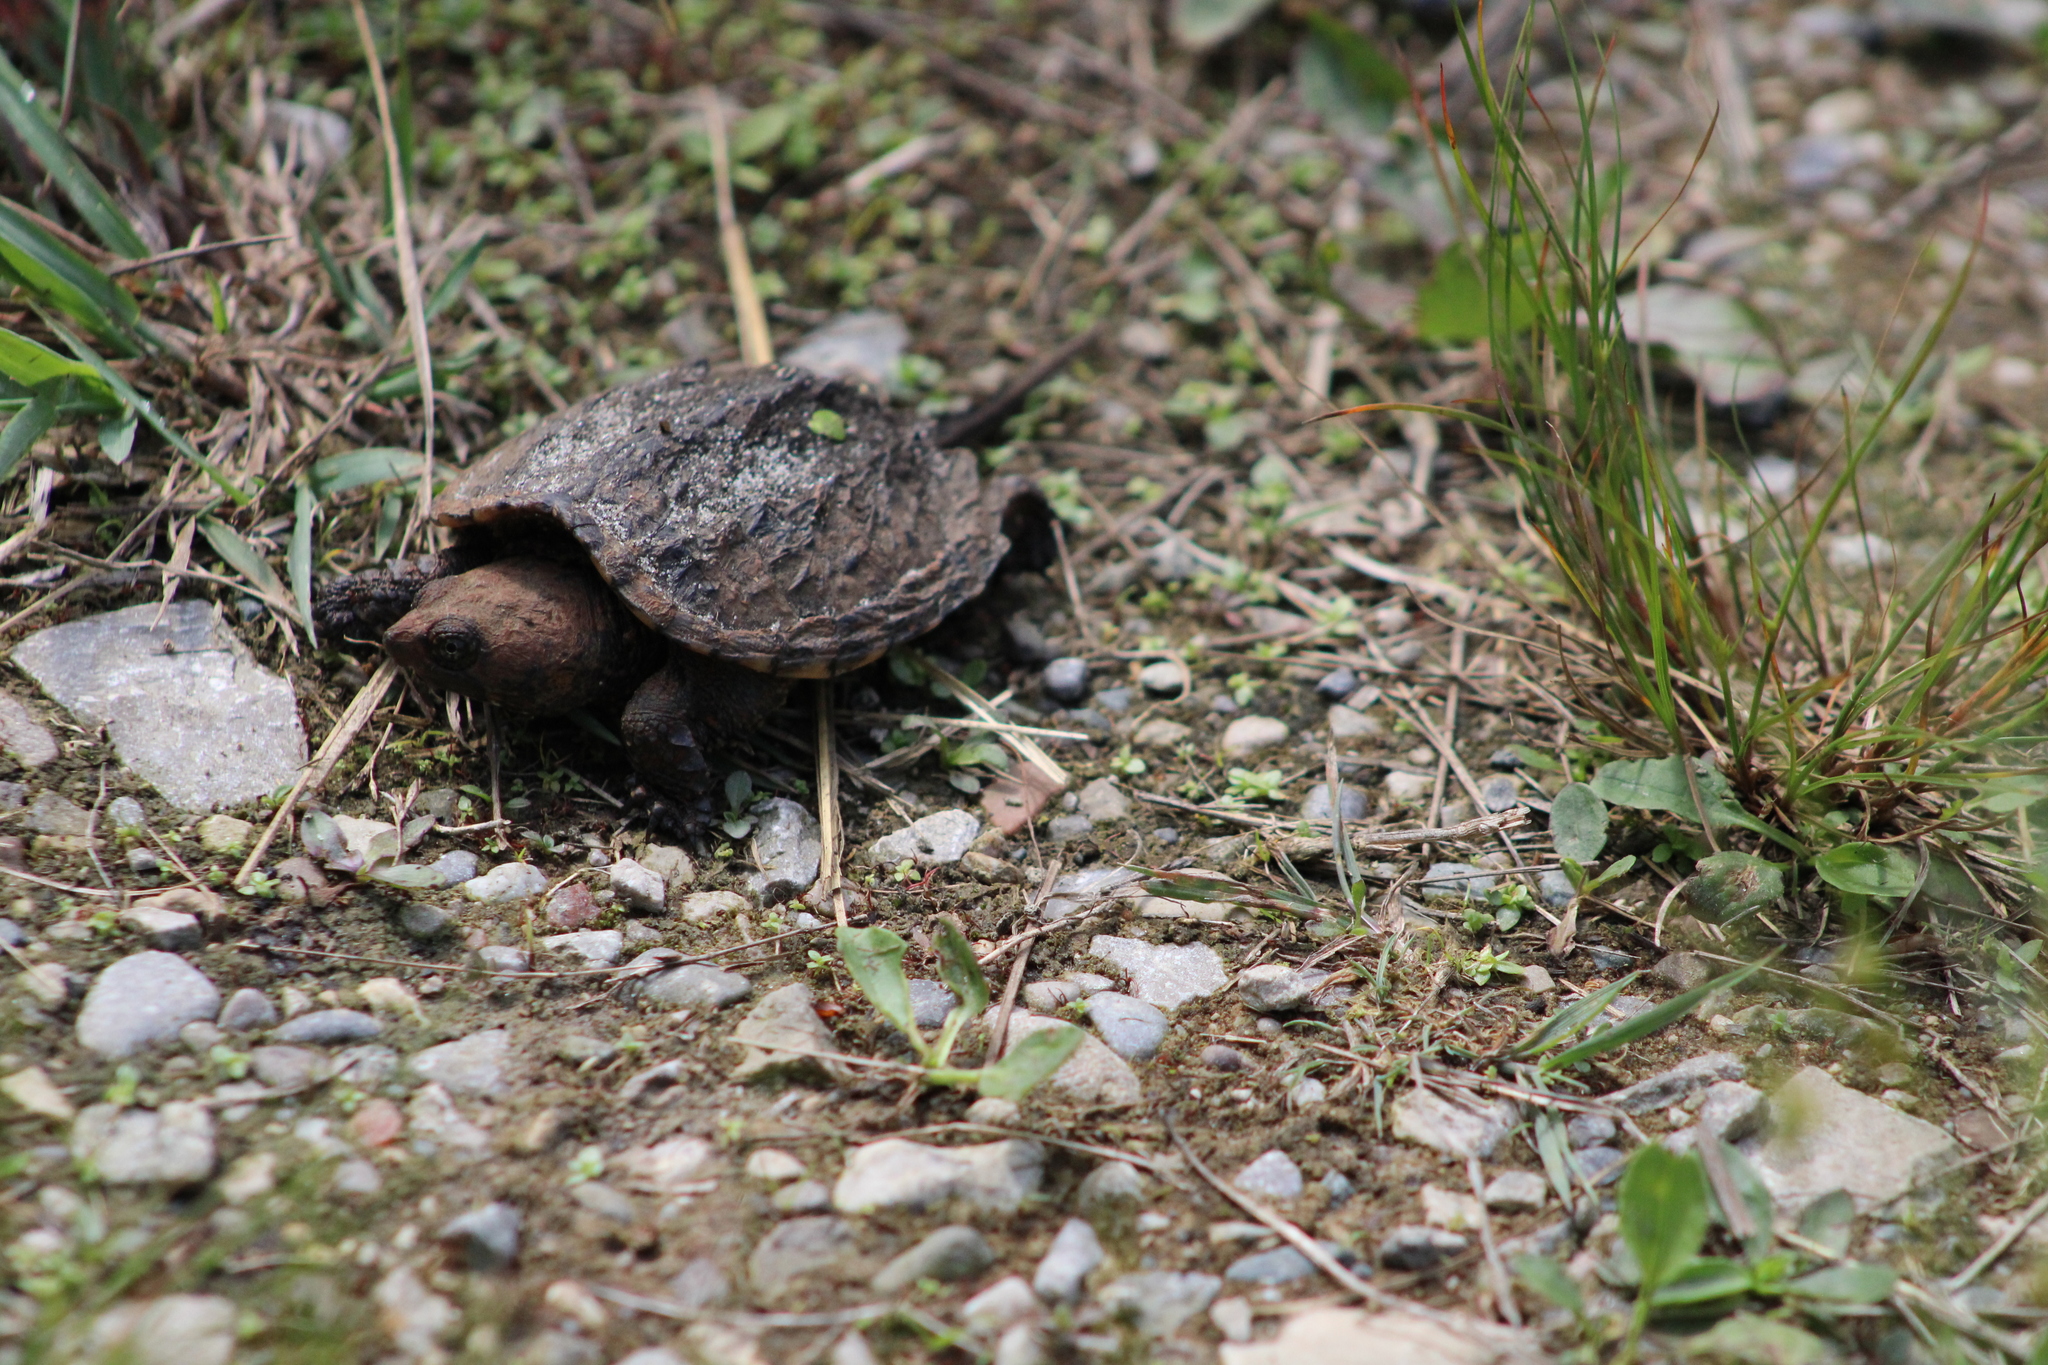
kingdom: Animalia
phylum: Chordata
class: Testudines
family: Chelydridae
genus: Chelydra
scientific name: Chelydra serpentina
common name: Common snapping turtle
